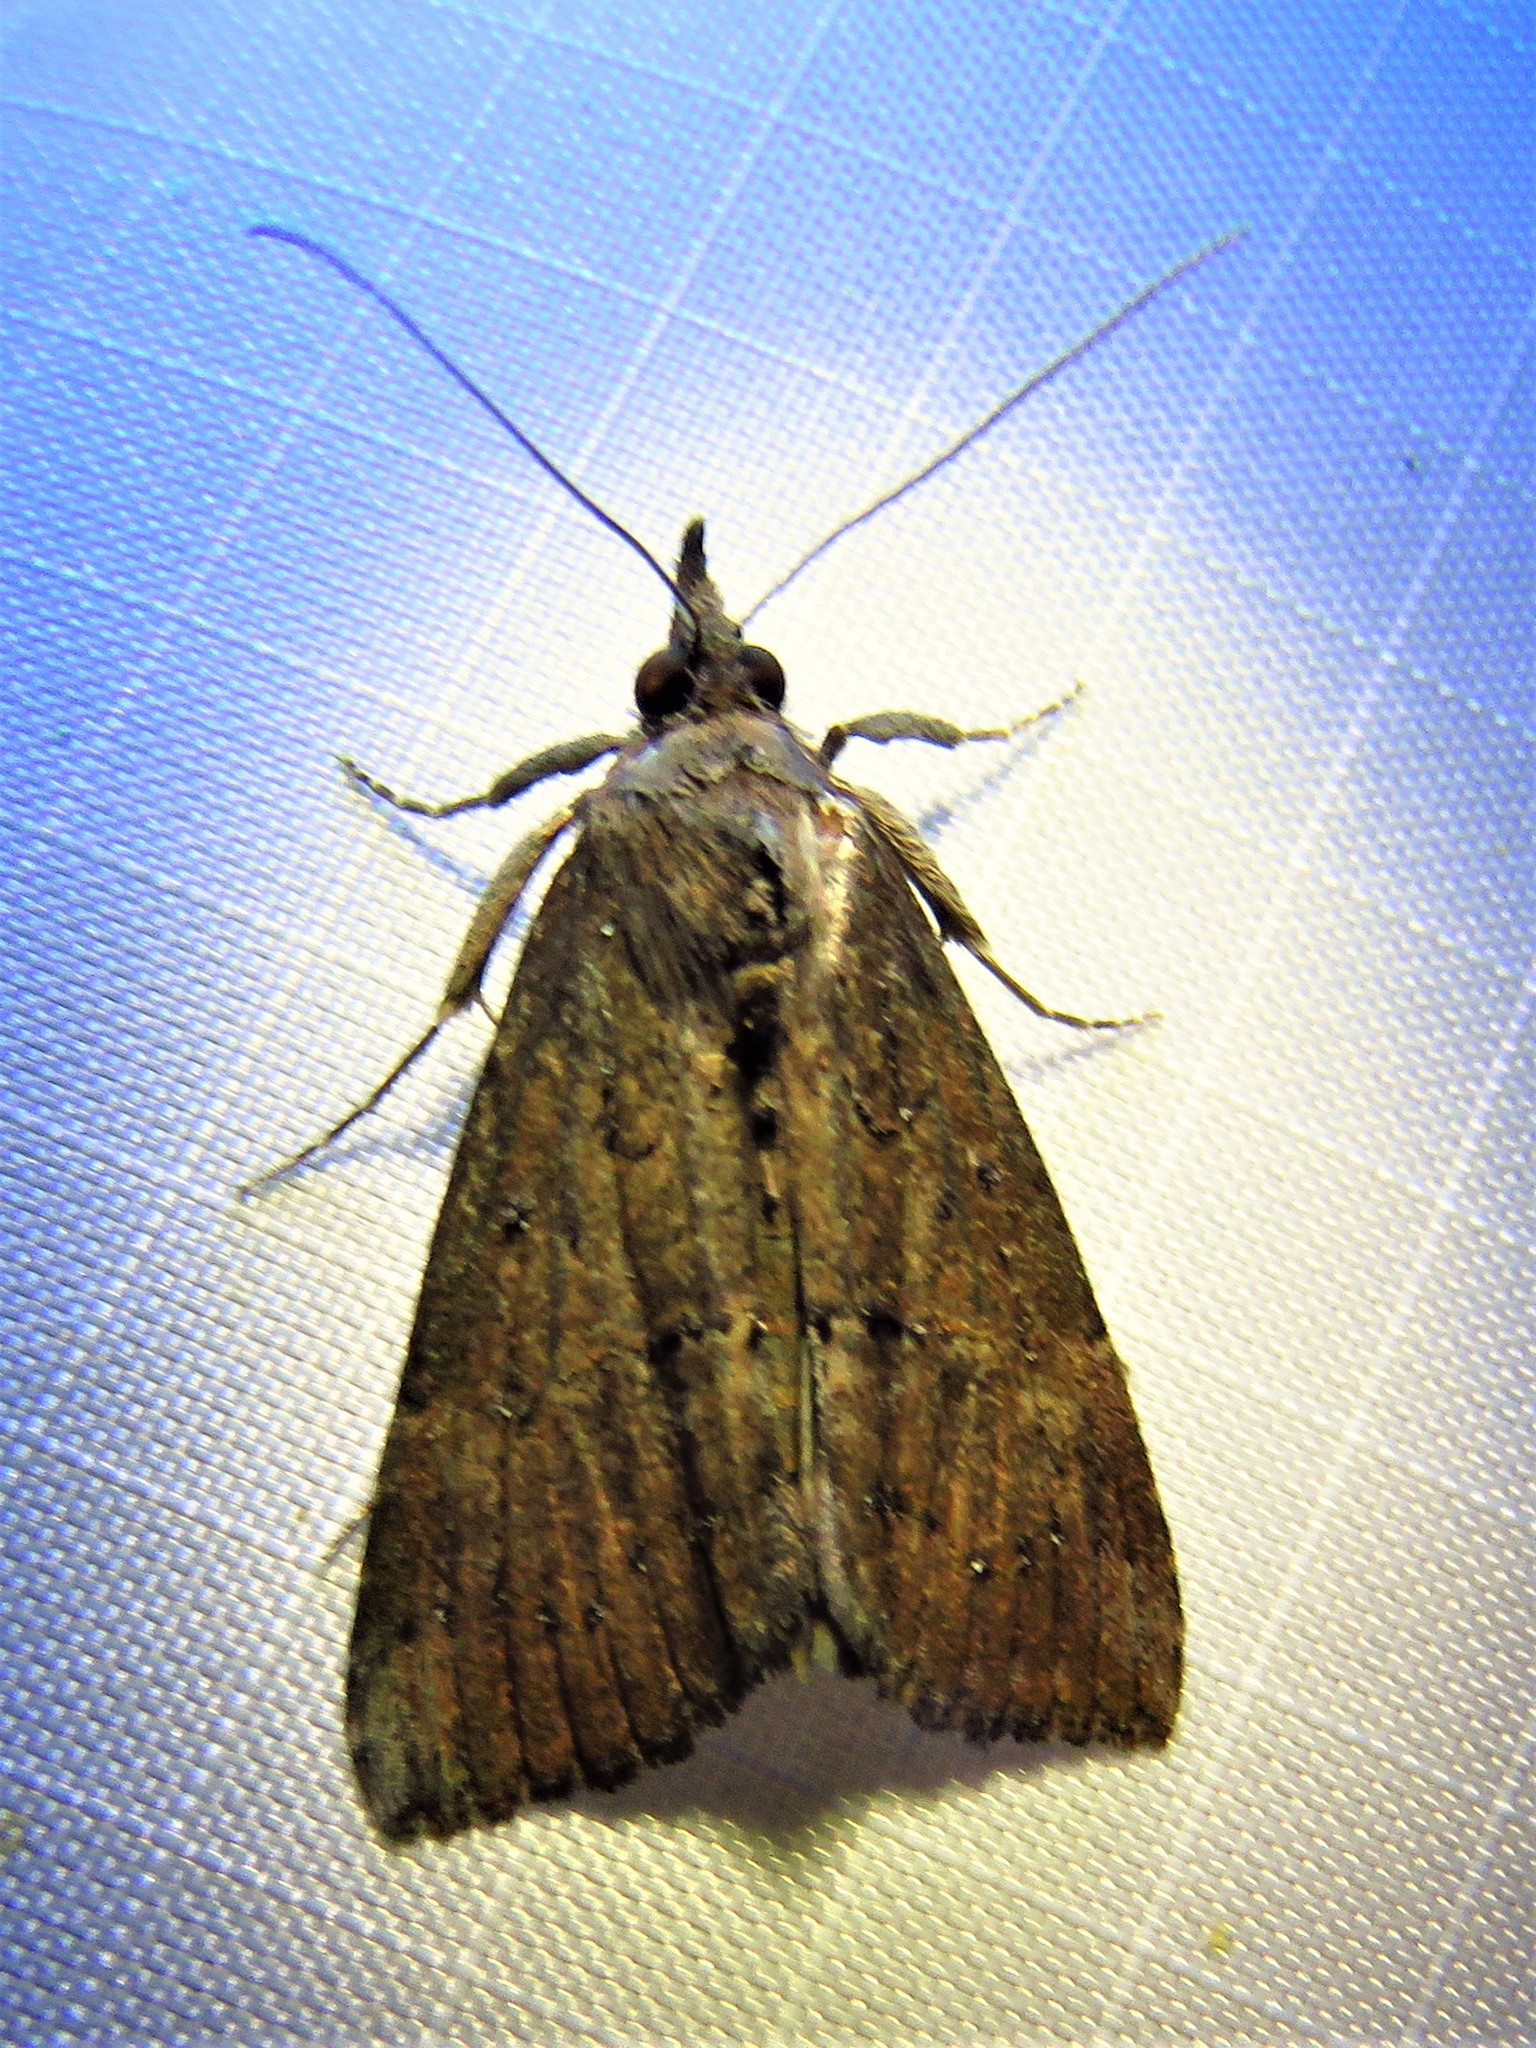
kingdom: Animalia
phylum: Arthropoda
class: Insecta
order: Lepidoptera
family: Erebidae
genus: Hypena
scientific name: Hypena scabra
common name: Green cloverworm
